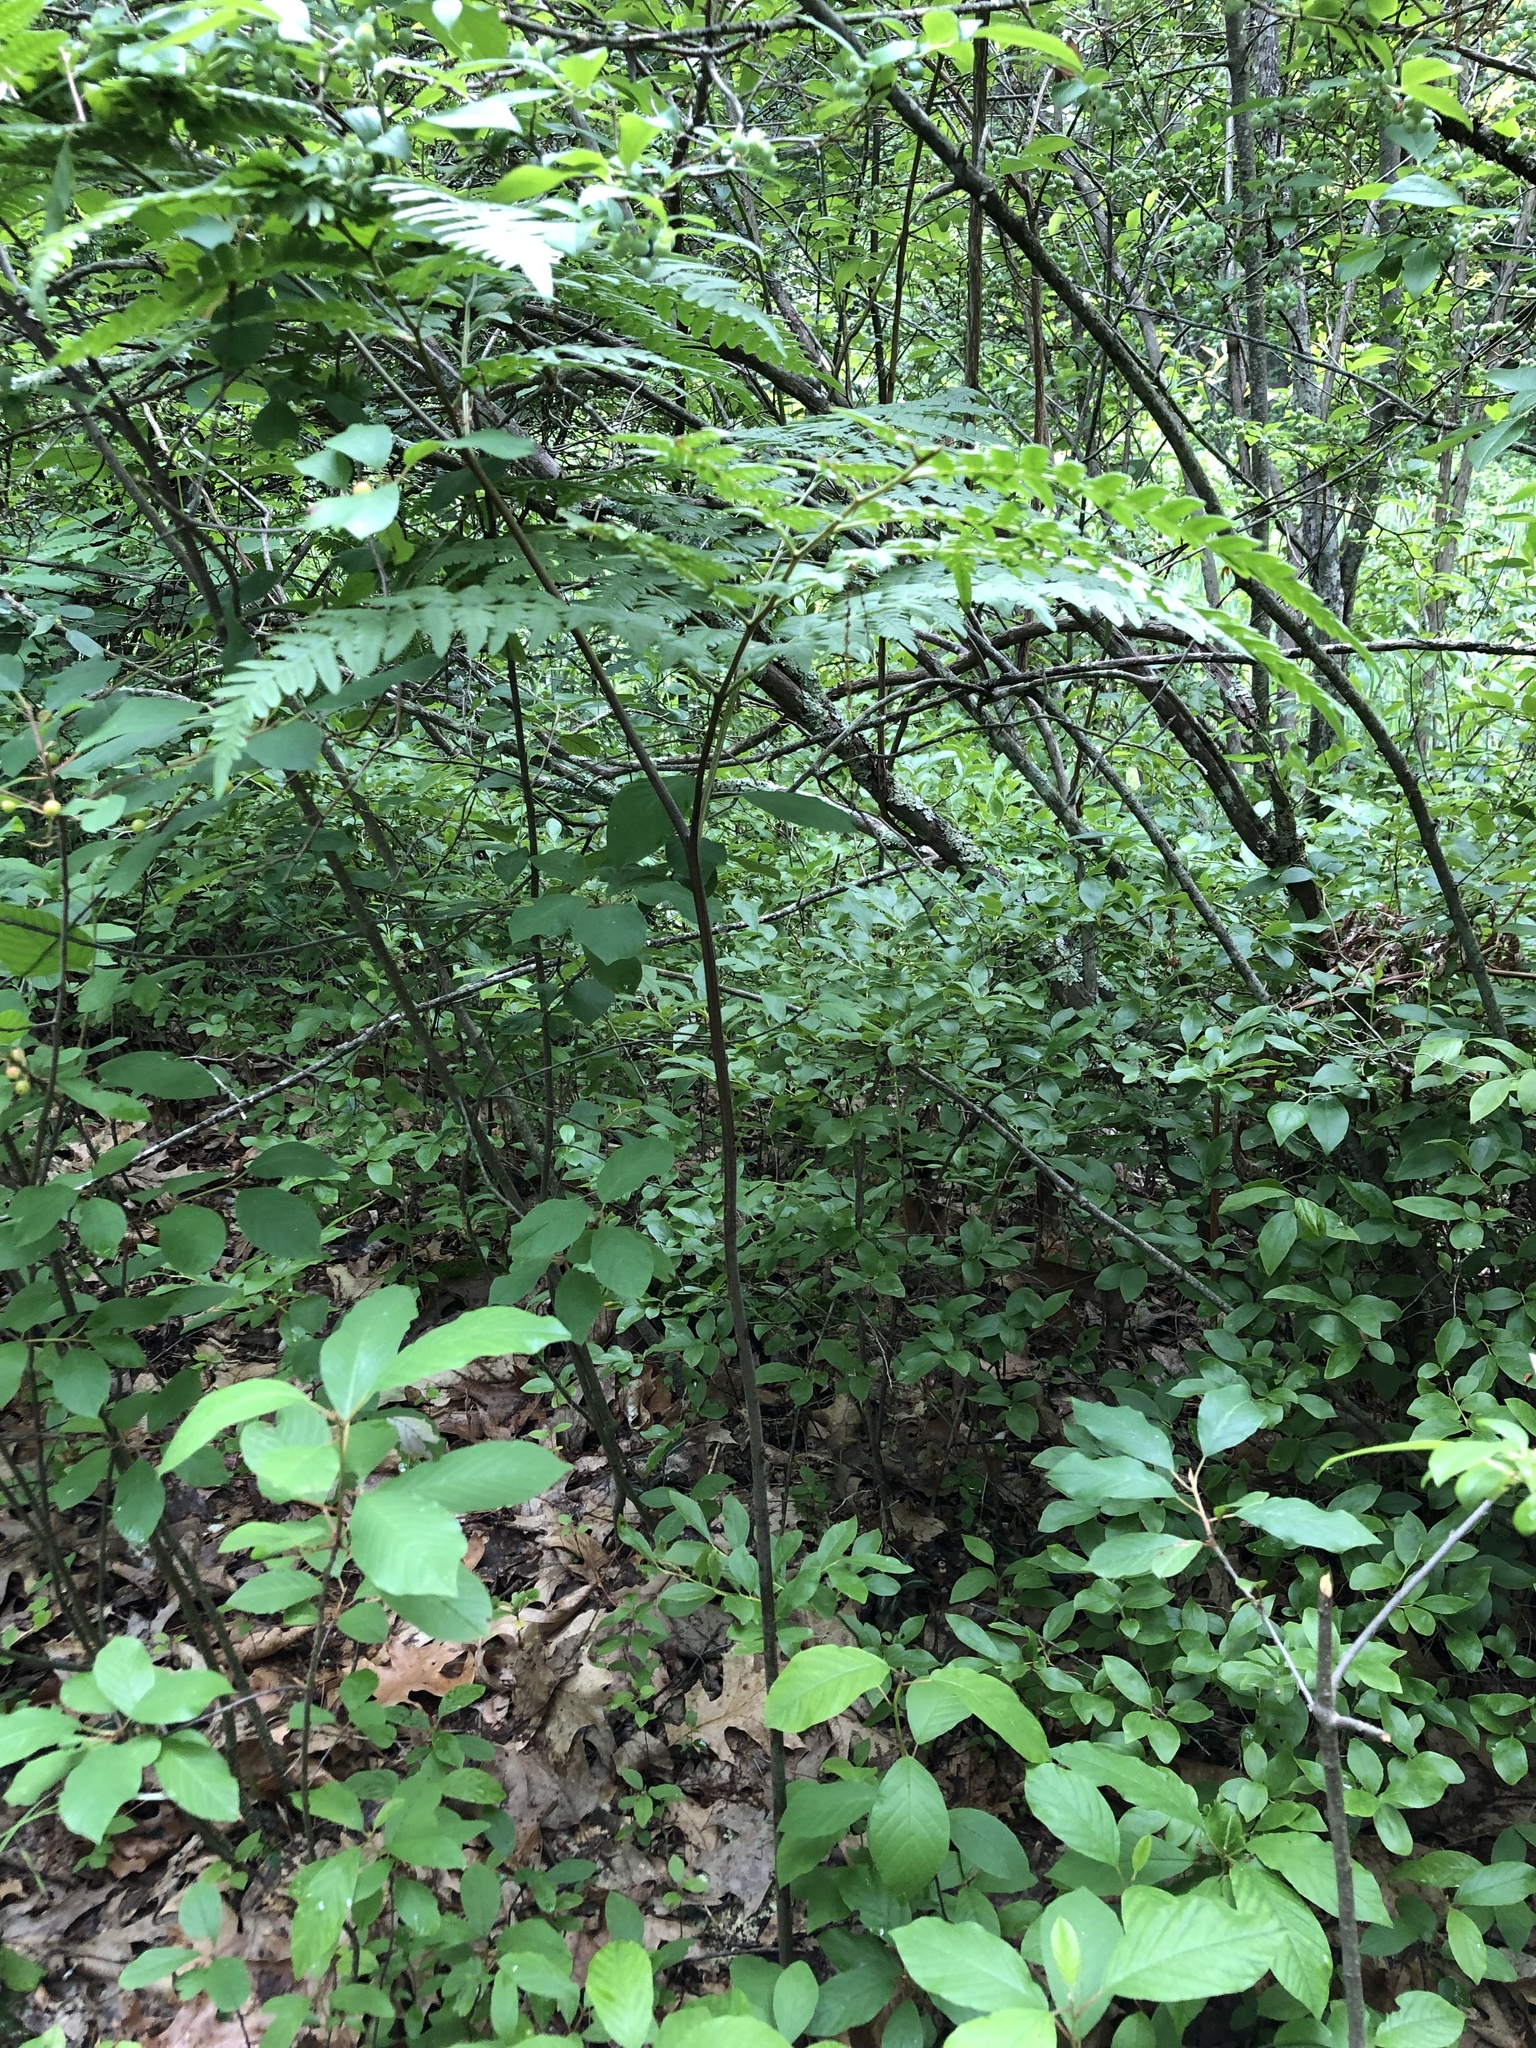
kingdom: Plantae
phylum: Tracheophyta
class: Polypodiopsida
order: Polypodiales
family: Dennstaedtiaceae
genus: Pteridium
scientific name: Pteridium aquilinum
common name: Bracken
